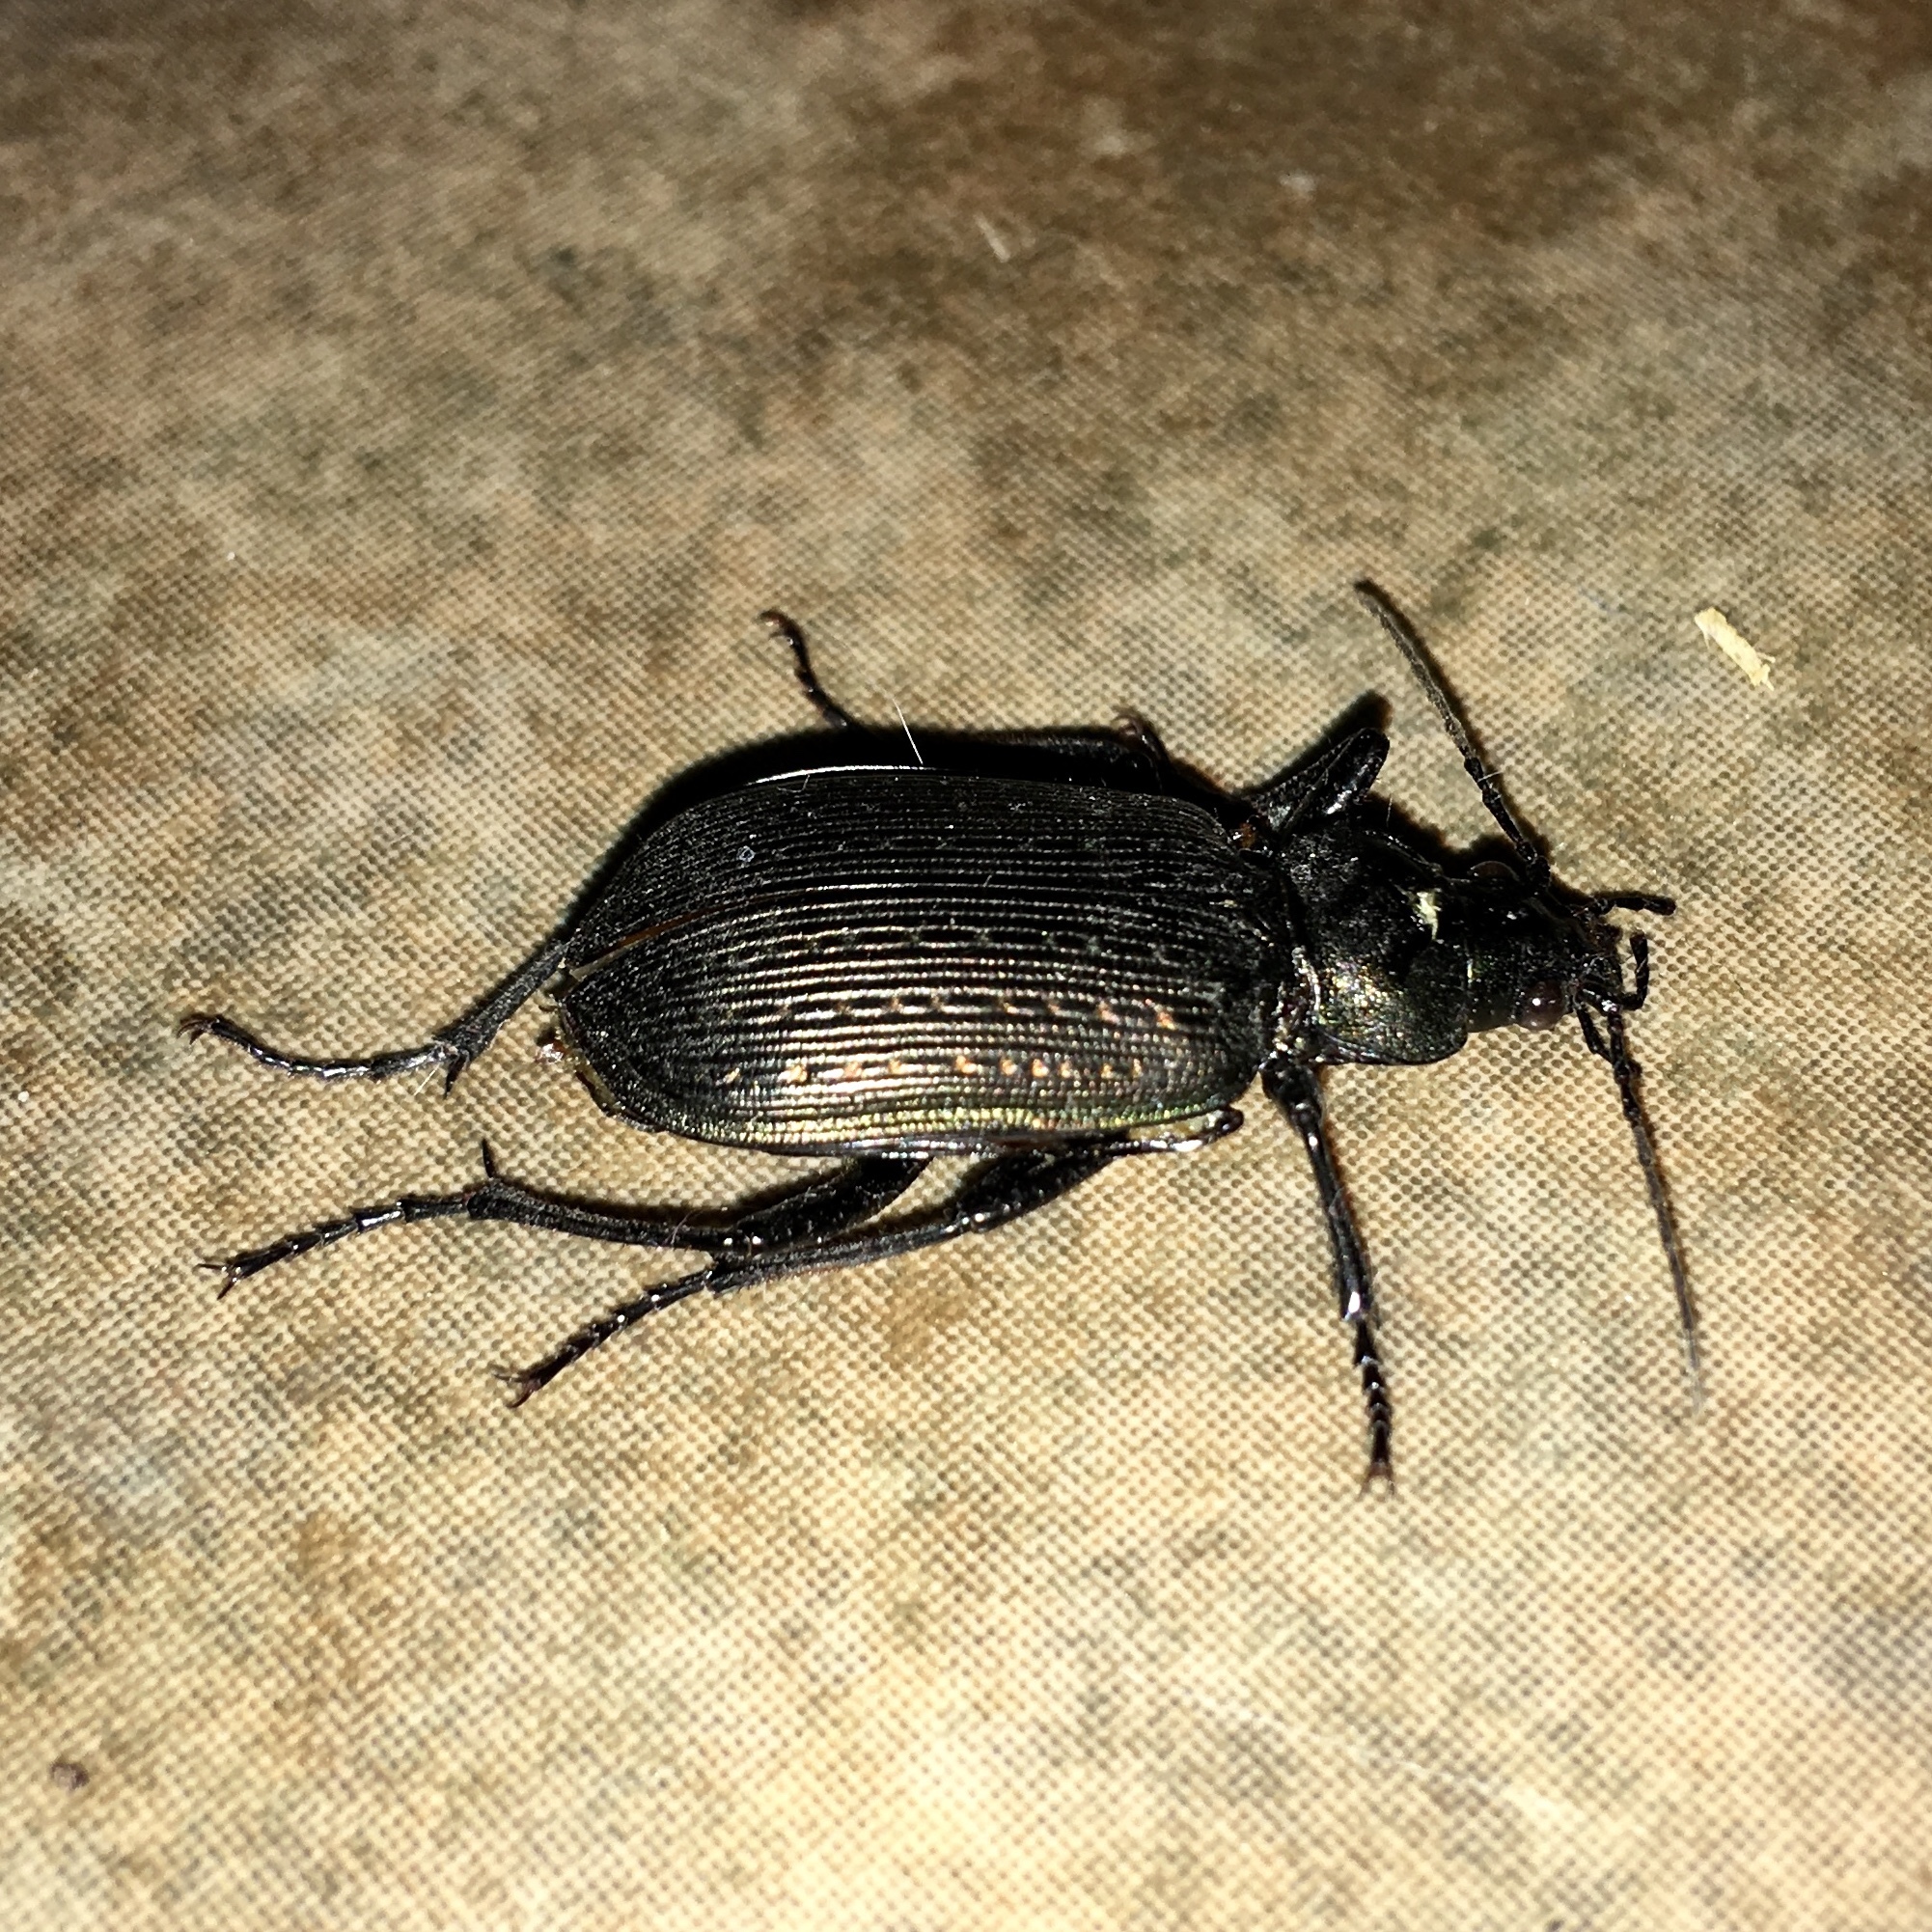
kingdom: Animalia
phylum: Arthropoda
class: Insecta
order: Coleoptera
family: Carabidae
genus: Calosoma
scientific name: Calosoma sayi
